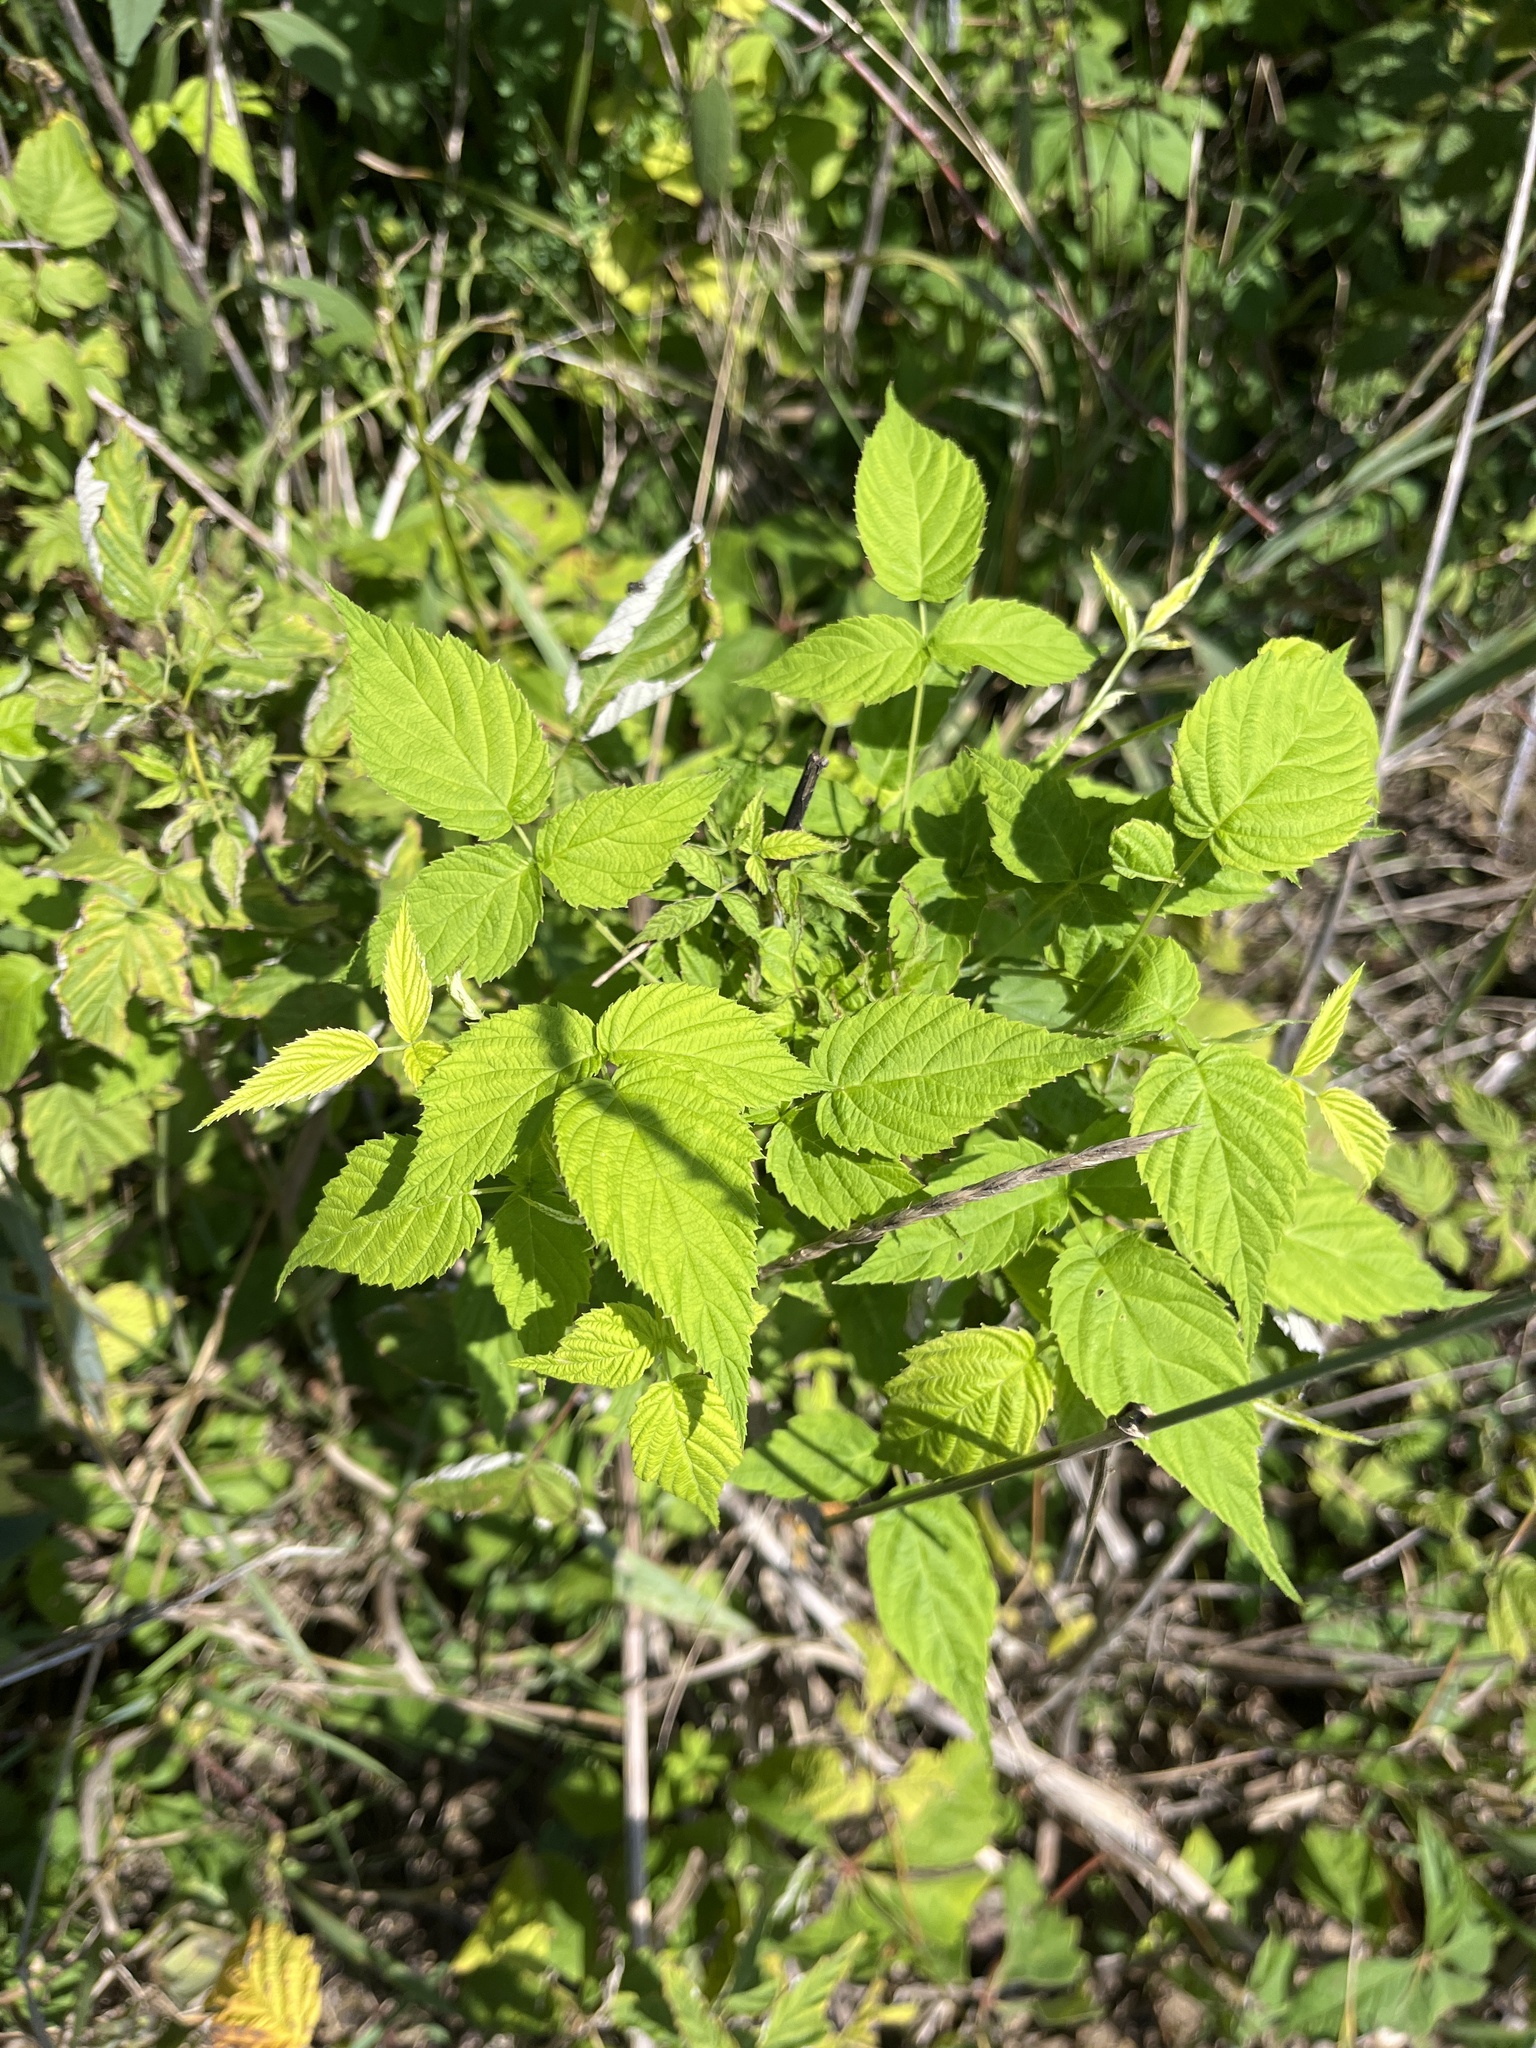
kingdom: Plantae
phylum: Tracheophyta
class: Magnoliopsida
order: Rosales
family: Rosaceae
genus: Rubus
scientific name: Rubus occidentalis
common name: Black raspberry
